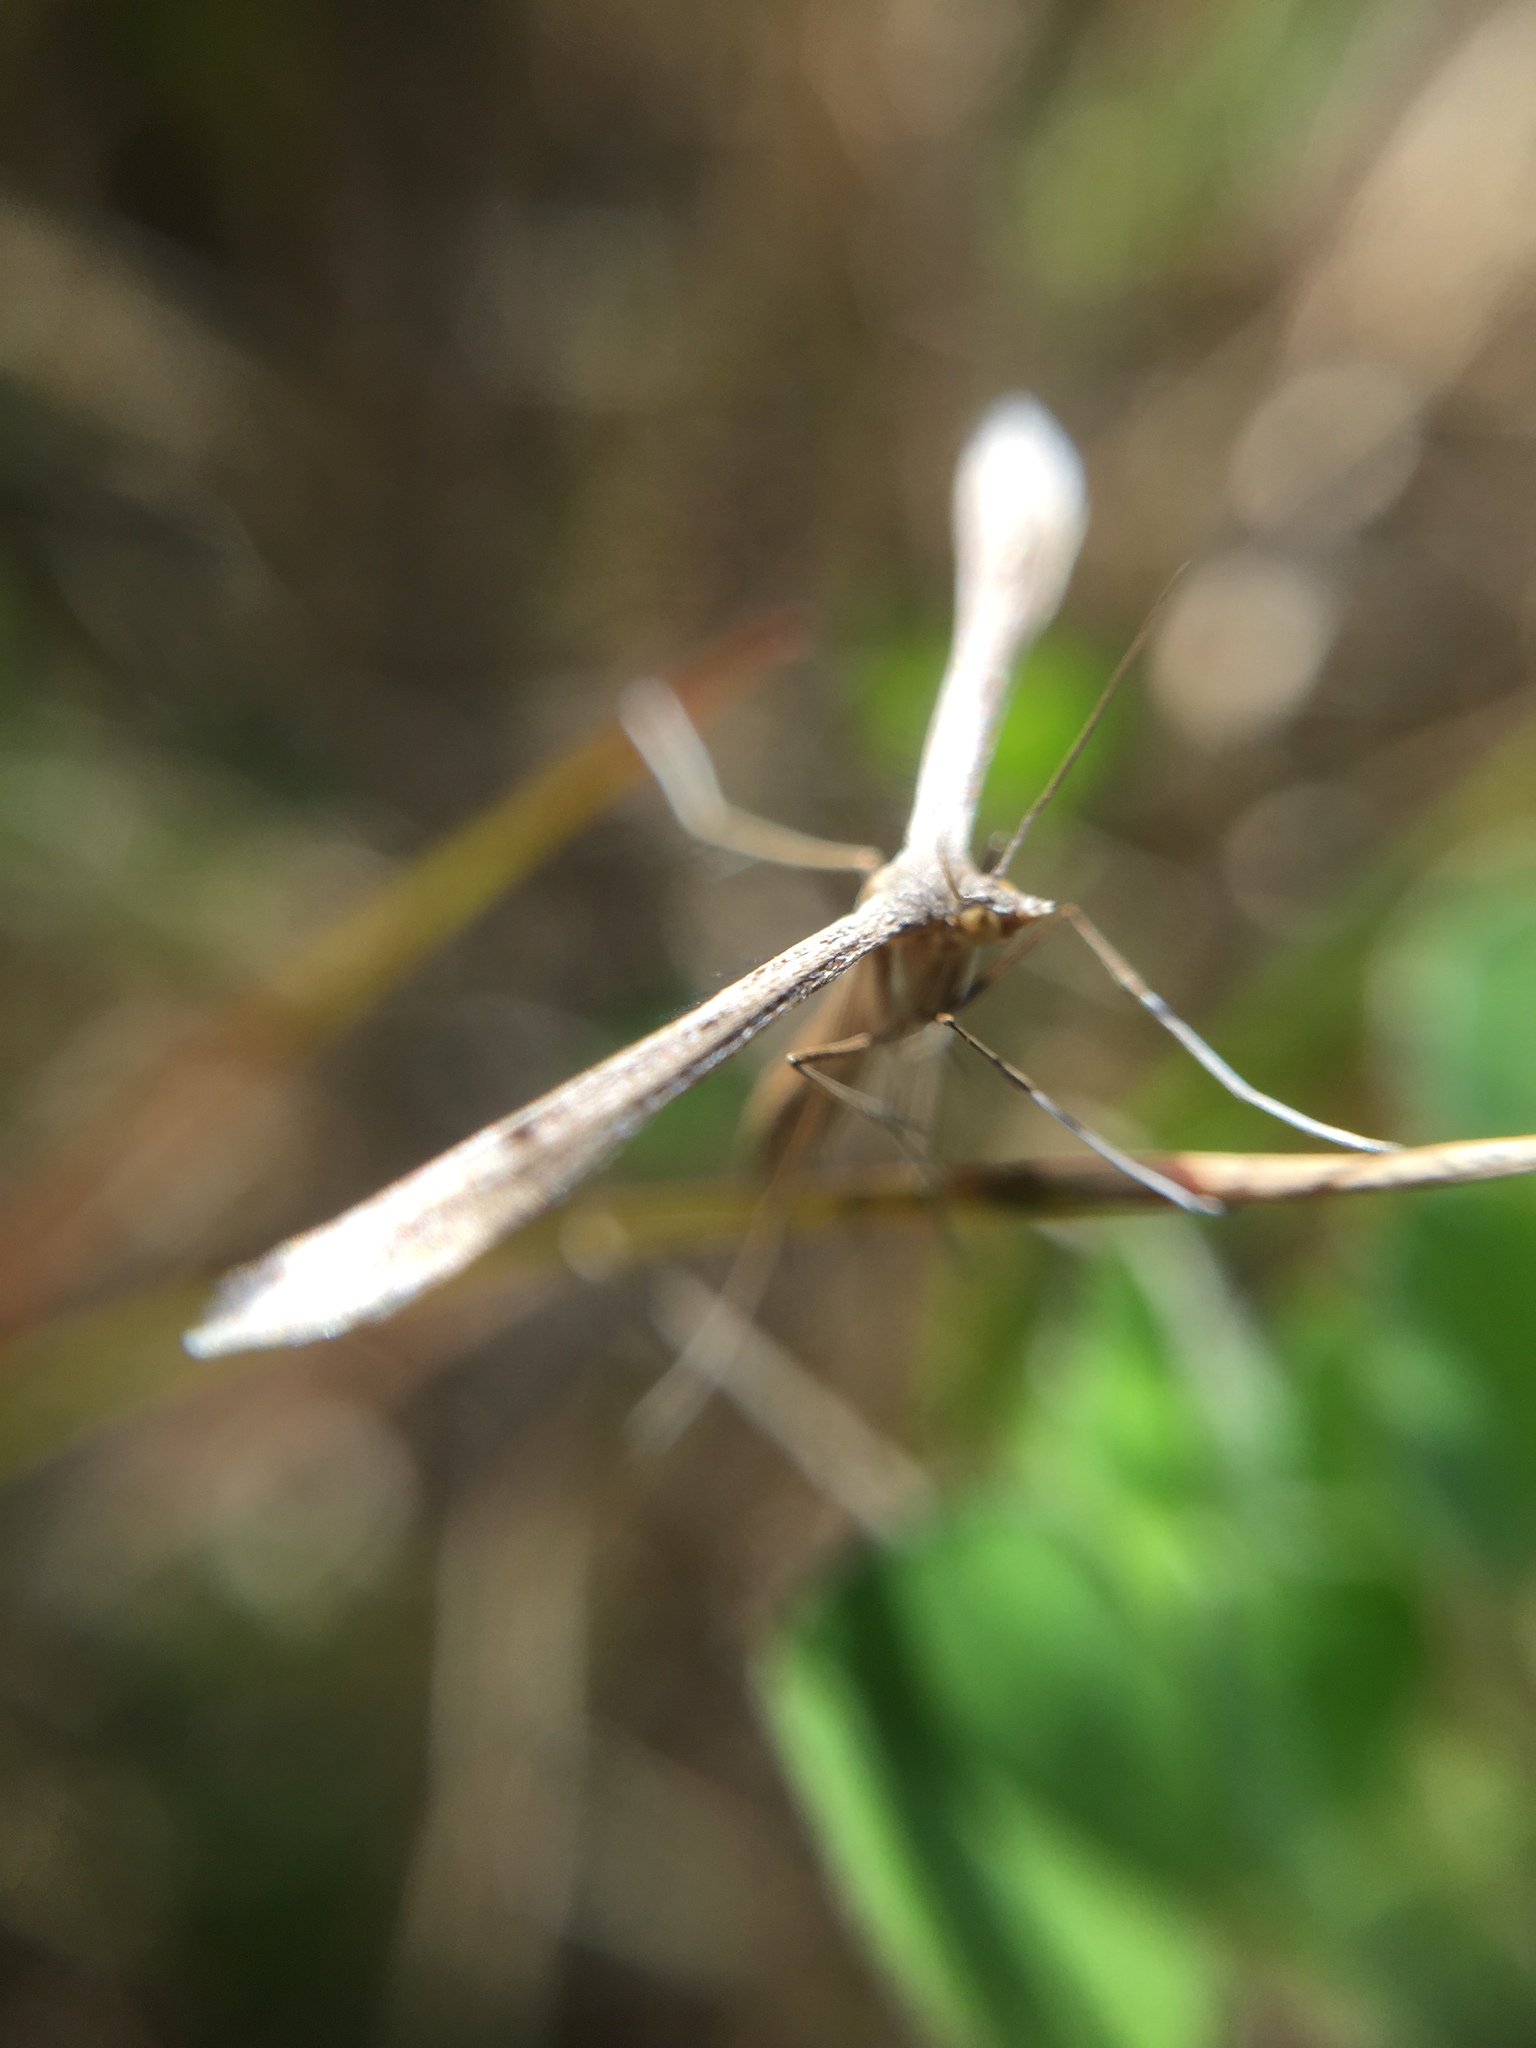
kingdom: Animalia
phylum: Arthropoda
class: Insecta
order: Lepidoptera
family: Pterophoridae
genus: Stenoptilia
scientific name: Stenoptilia zophodactylus
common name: Dowdy plume
